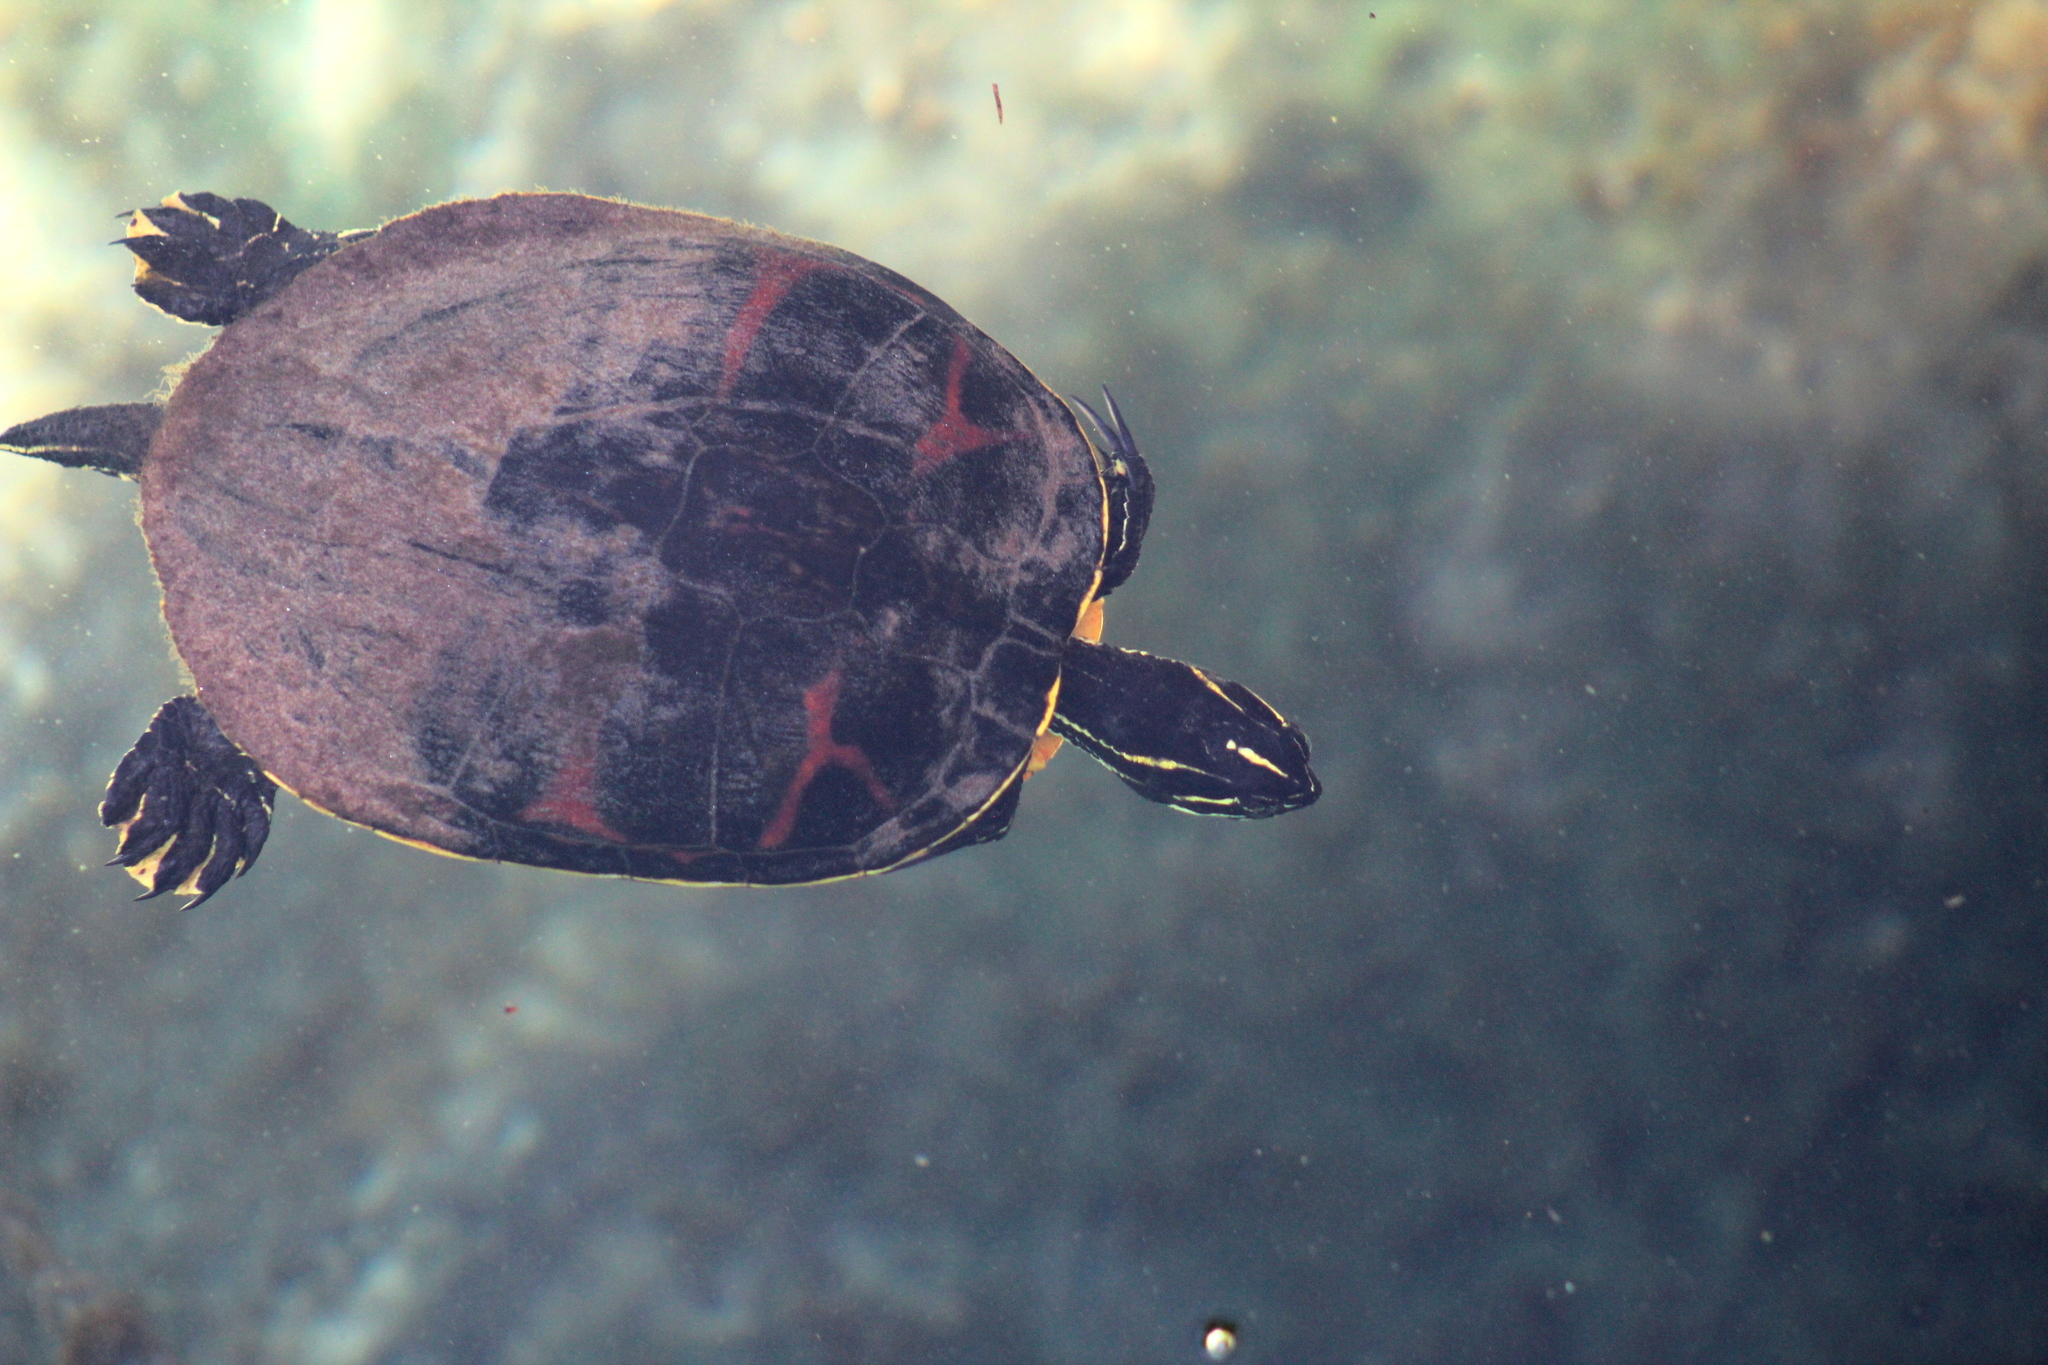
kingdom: Animalia
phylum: Chordata
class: Testudines
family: Emydidae
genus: Pseudemys
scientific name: Pseudemys nelsoni
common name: Florida red-bellied turtle
